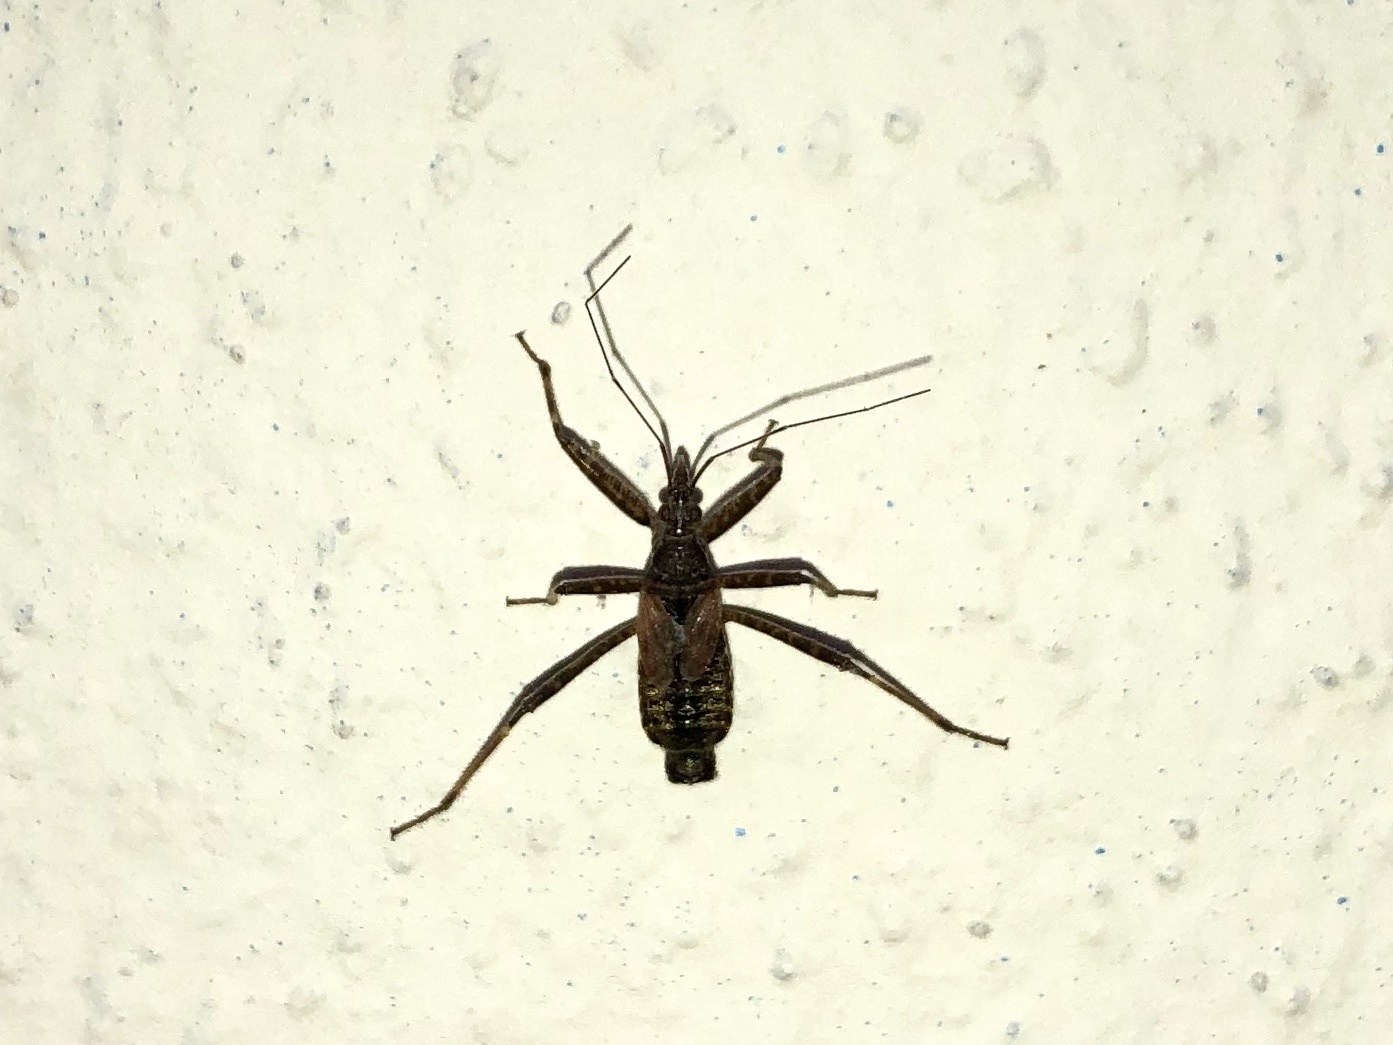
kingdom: Animalia
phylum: Arthropoda
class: Insecta
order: Hemiptera
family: Nabidae
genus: Himacerus
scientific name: Himacerus apterus
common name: Tree damsel bug
